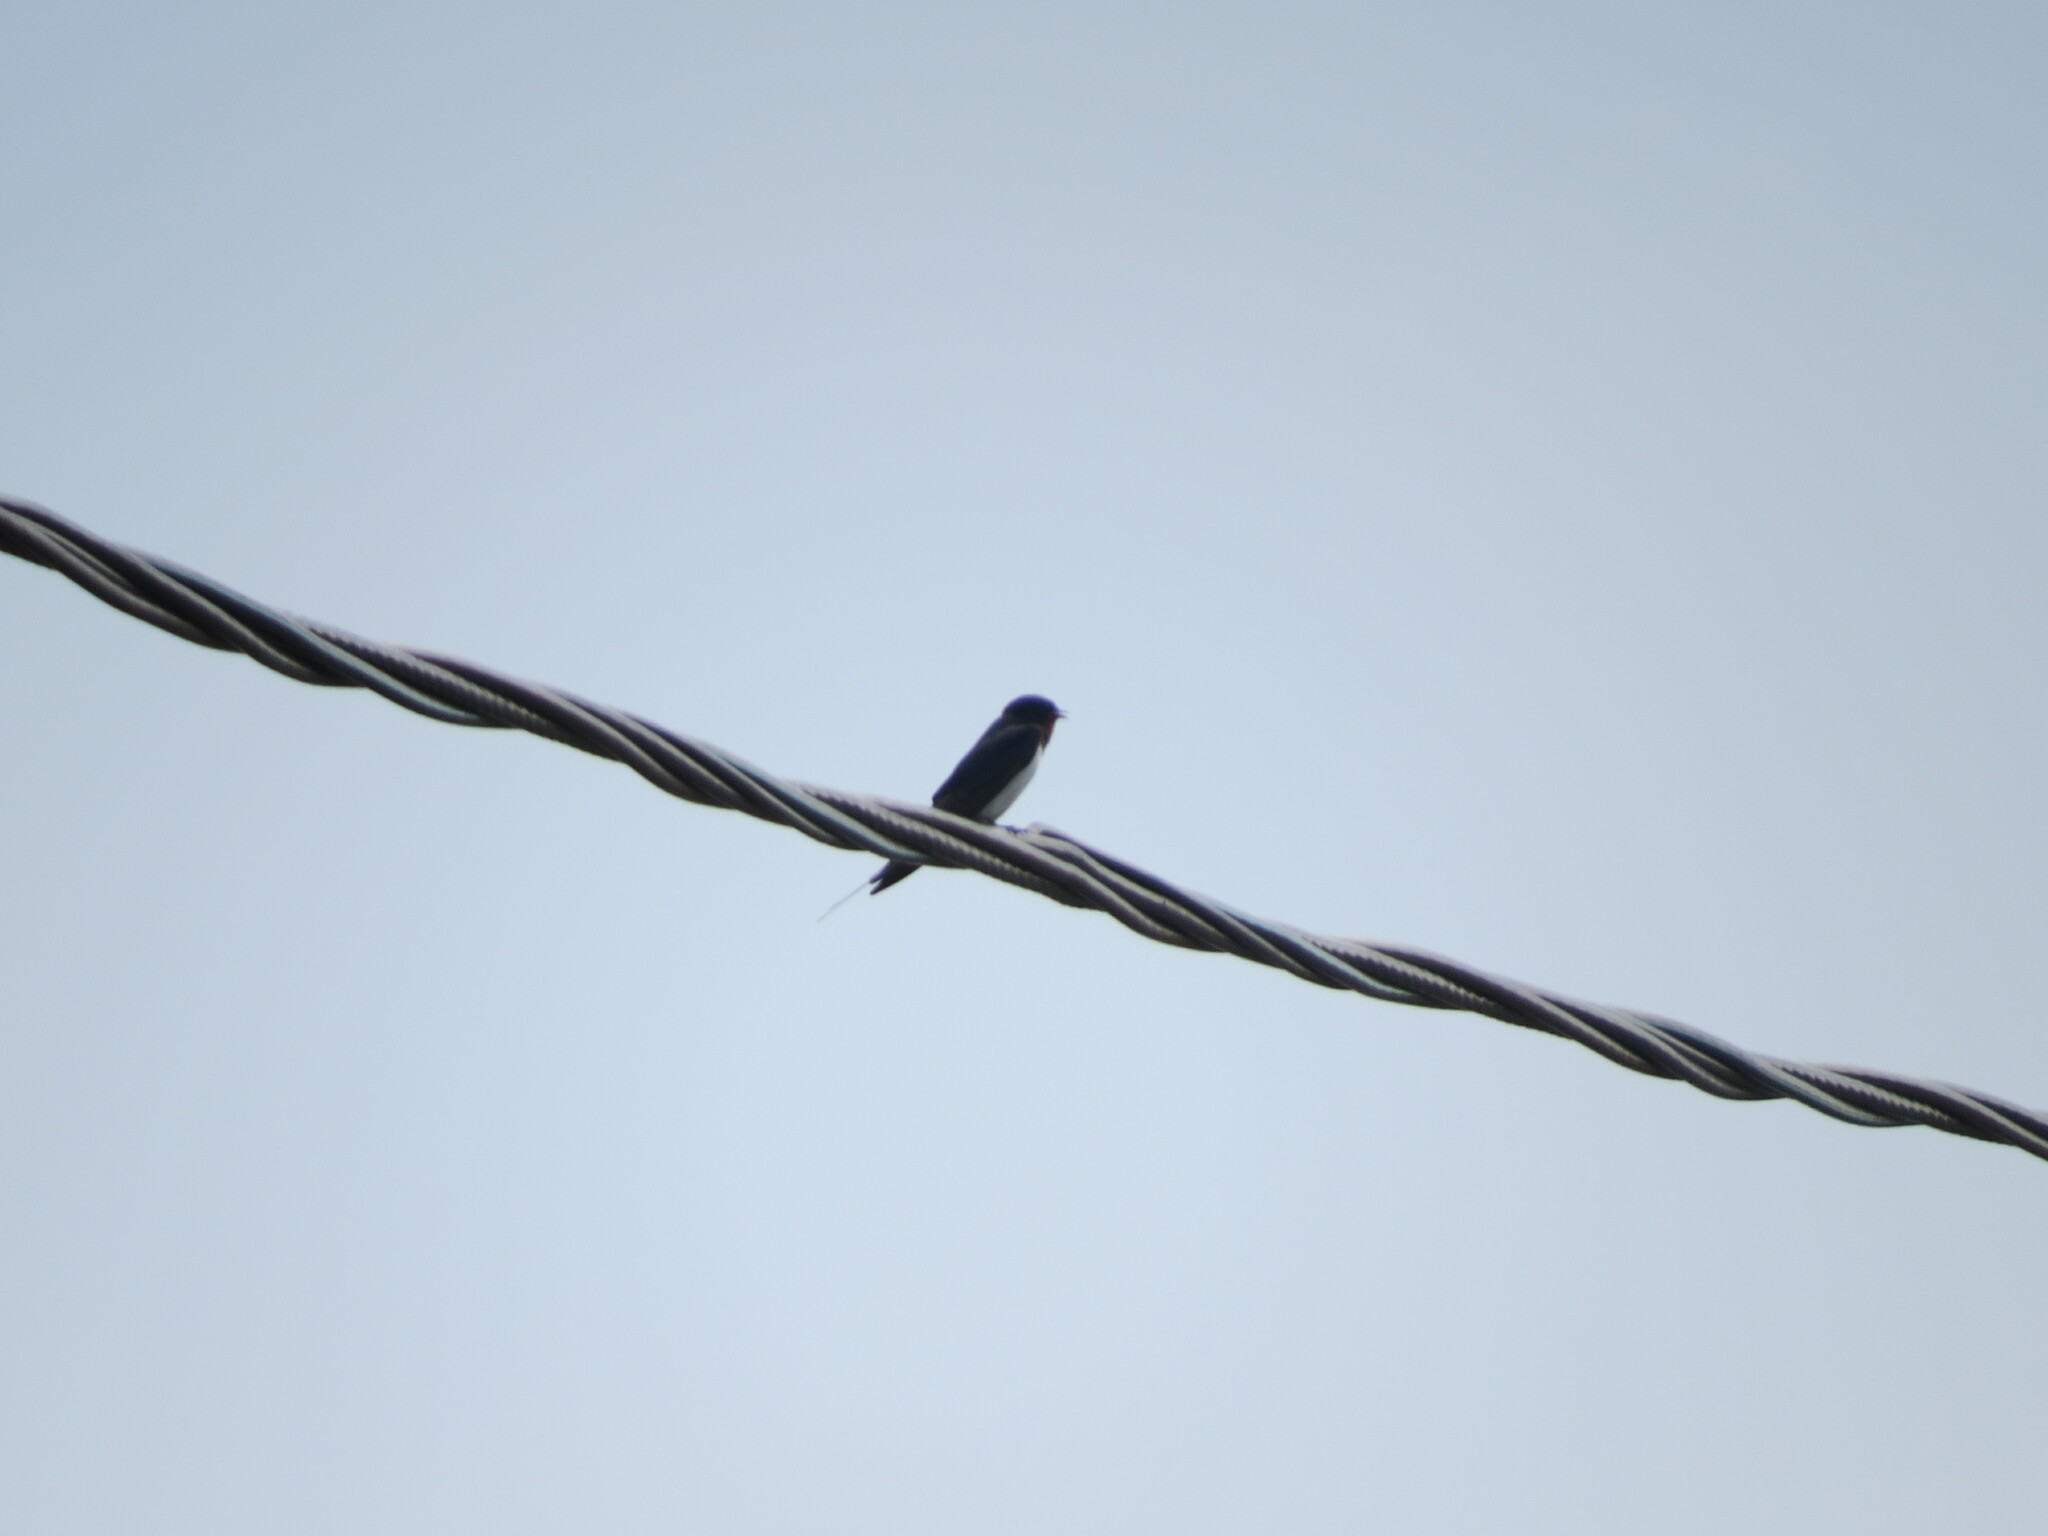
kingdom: Animalia
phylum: Chordata
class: Aves
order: Passeriformes
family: Hirundinidae
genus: Hirundo
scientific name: Hirundo rustica
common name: Barn swallow
